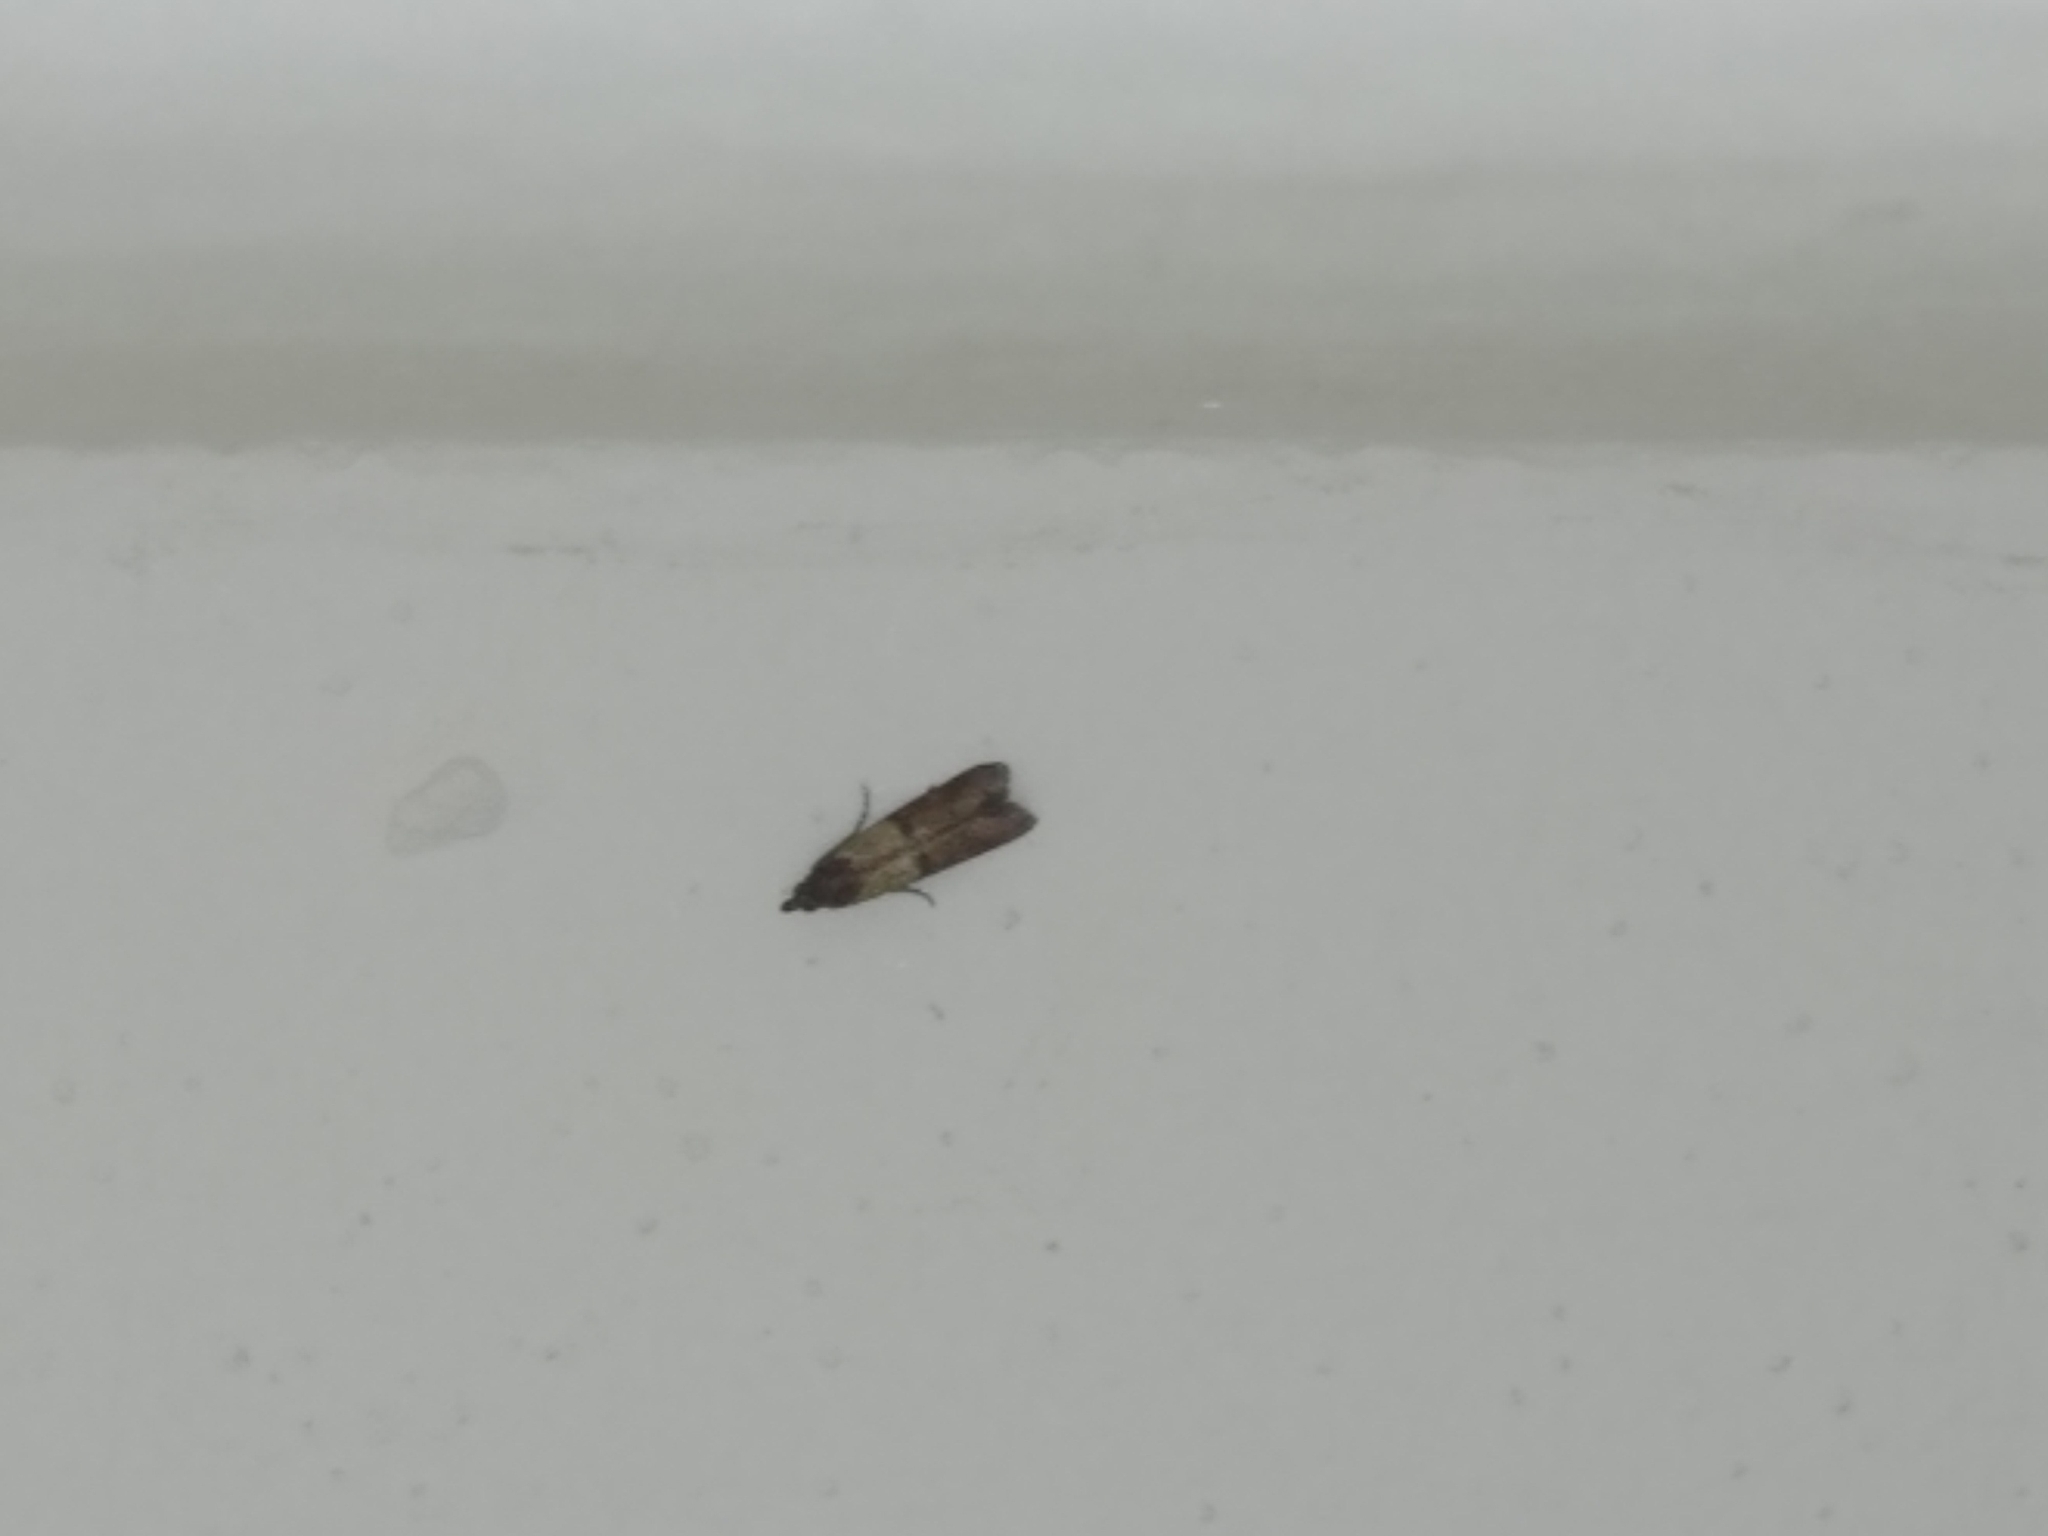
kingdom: Animalia
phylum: Arthropoda
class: Insecta
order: Lepidoptera
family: Pyralidae
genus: Plodia
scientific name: Plodia interpunctella
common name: Indian meal moth
